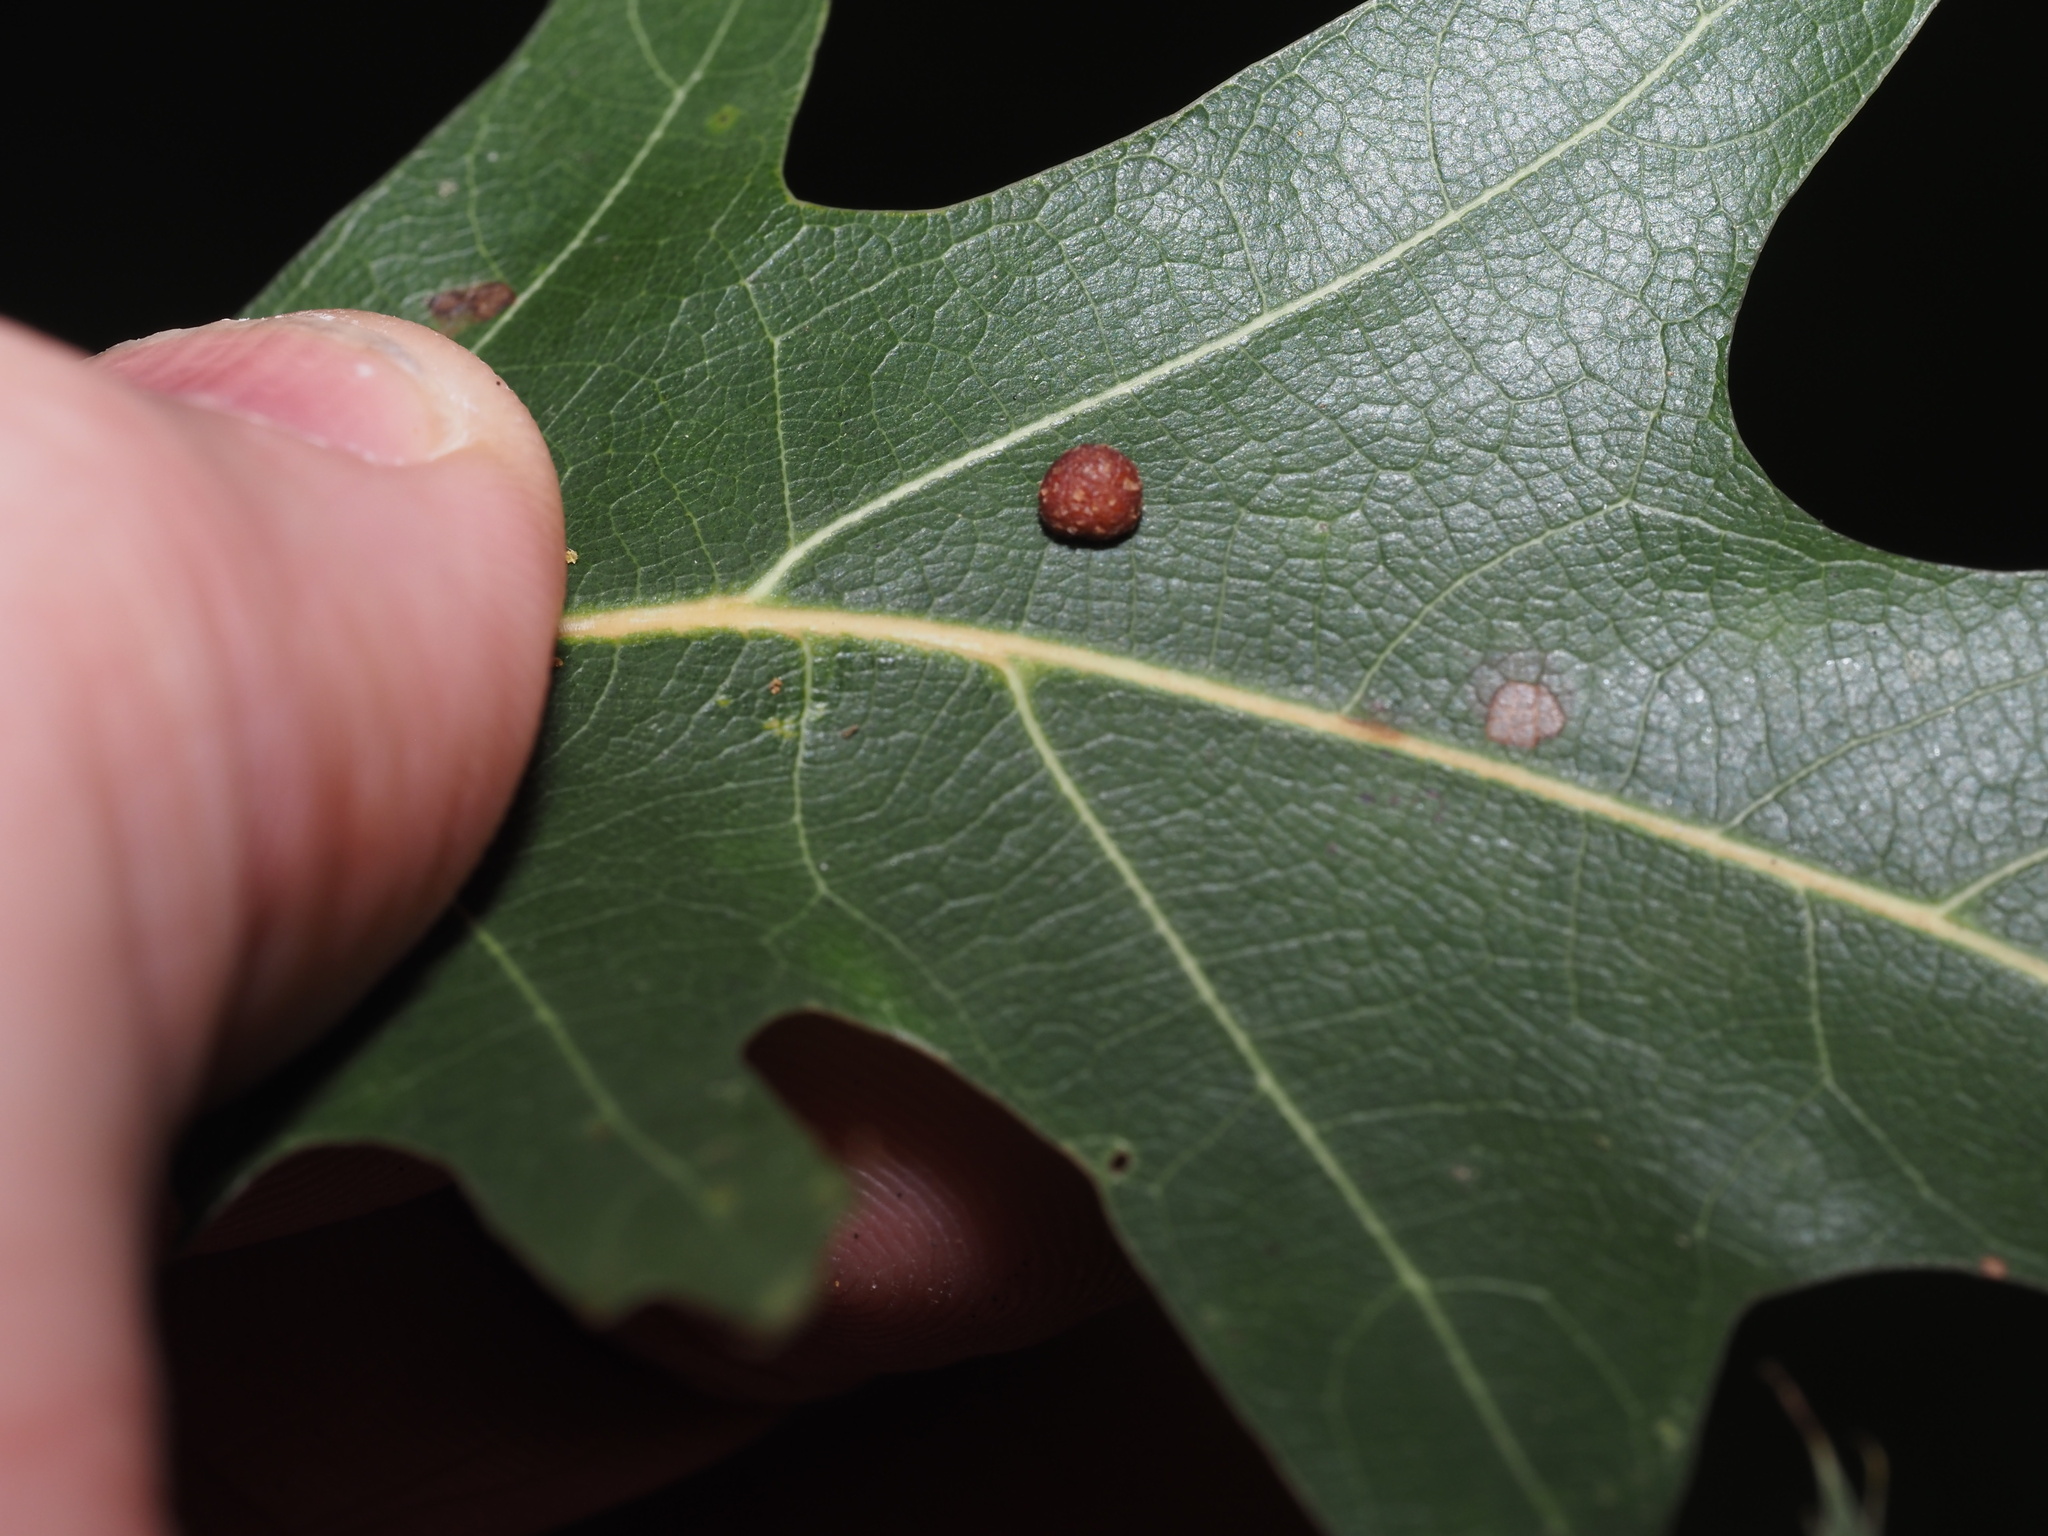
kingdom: Animalia
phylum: Arthropoda
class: Insecta
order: Diptera
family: Cecidomyiidae
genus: Polystepha
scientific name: Polystepha globosa
